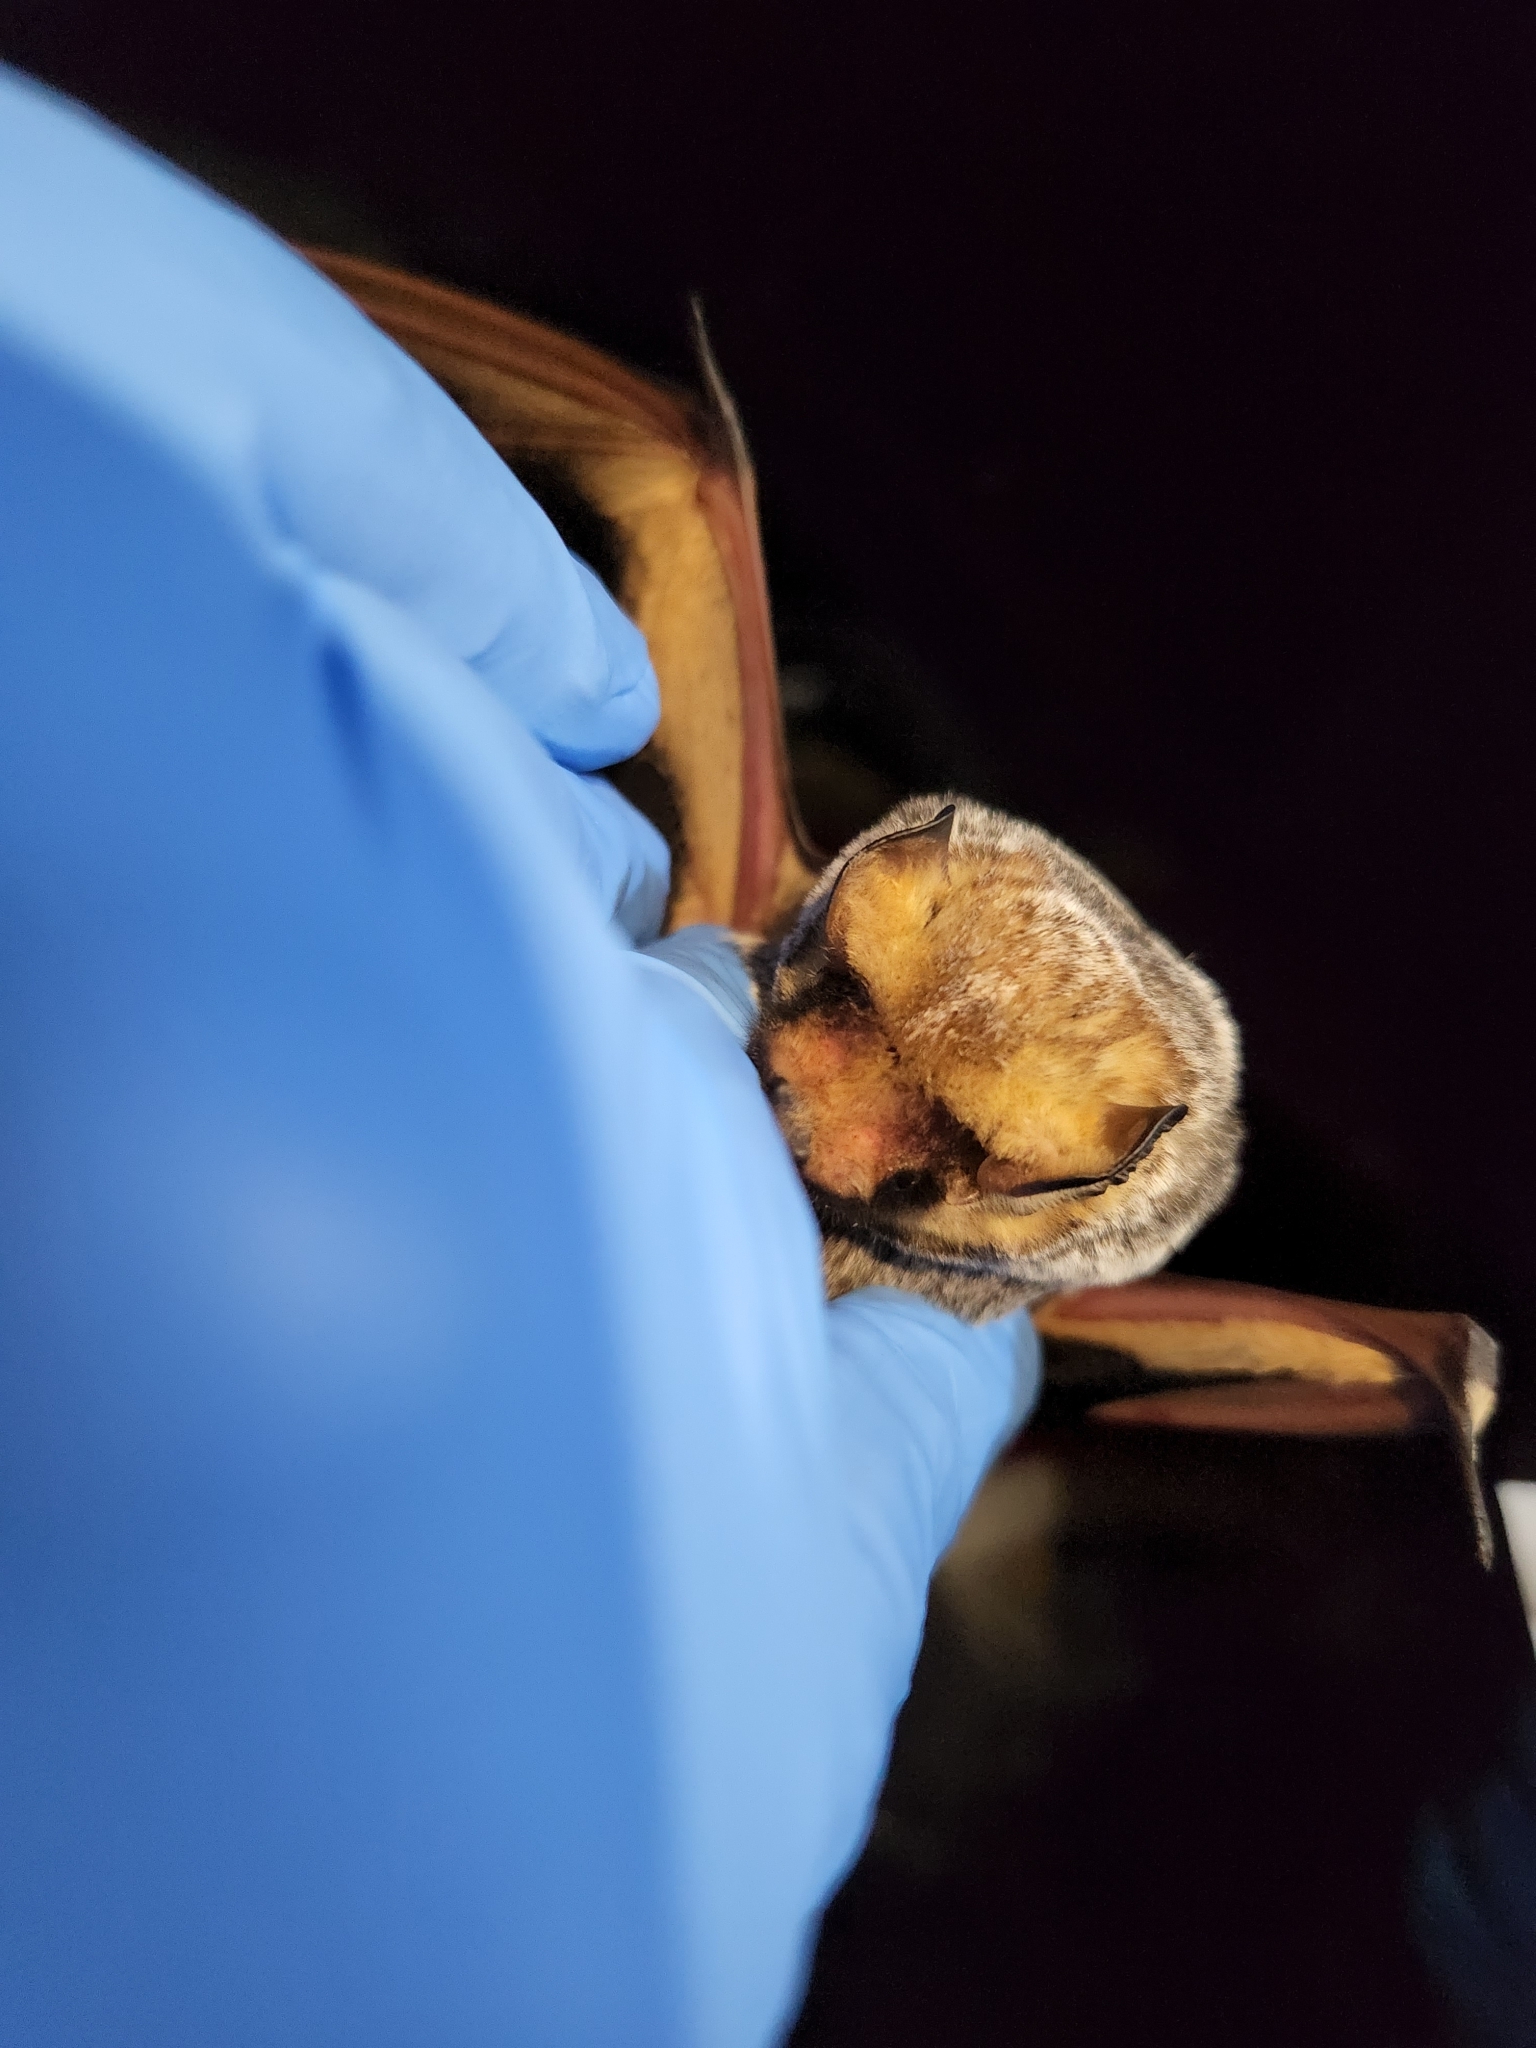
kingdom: Animalia
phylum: Chordata
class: Mammalia
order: Chiroptera
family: Vespertilionidae
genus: Aeorestes
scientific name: Aeorestes cinereus
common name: North american hoary bat
